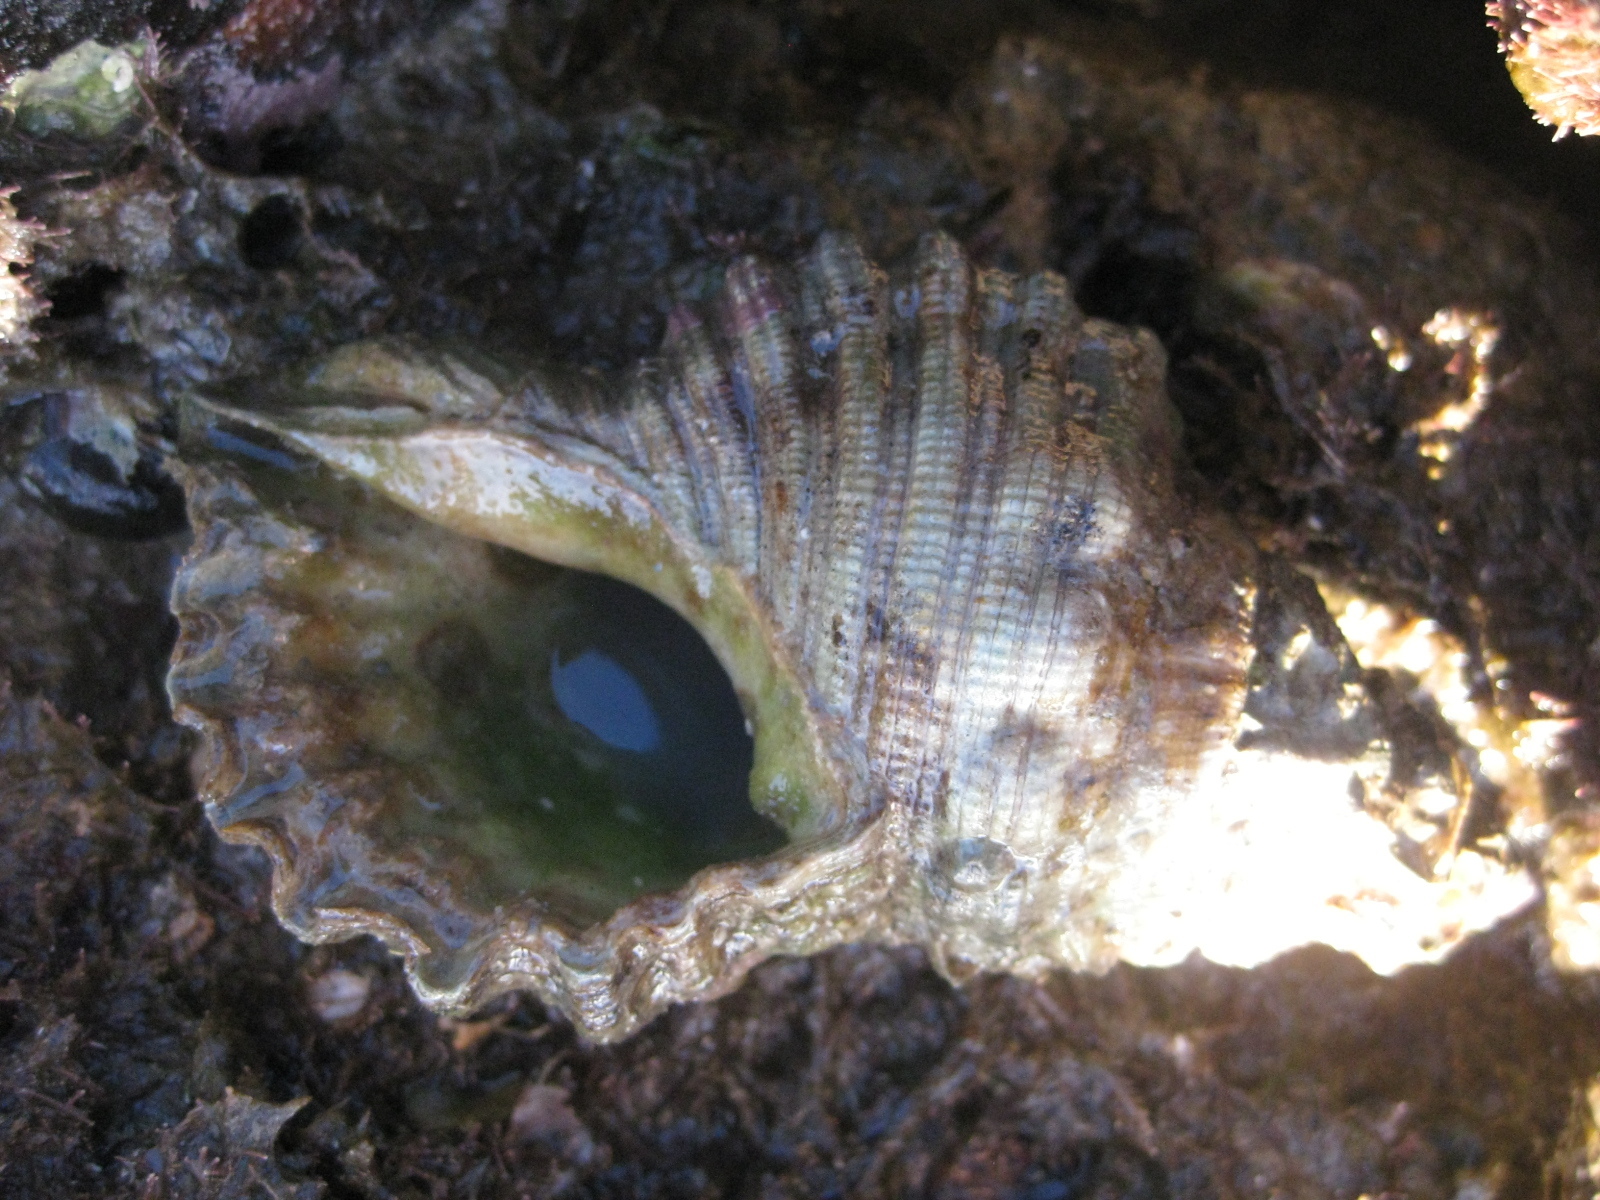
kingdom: Animalia
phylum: Mollusca
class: Gastropoda
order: Littorinimorpha
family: Cymatiidae
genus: Cabestana
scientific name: Cabestana spengleri
